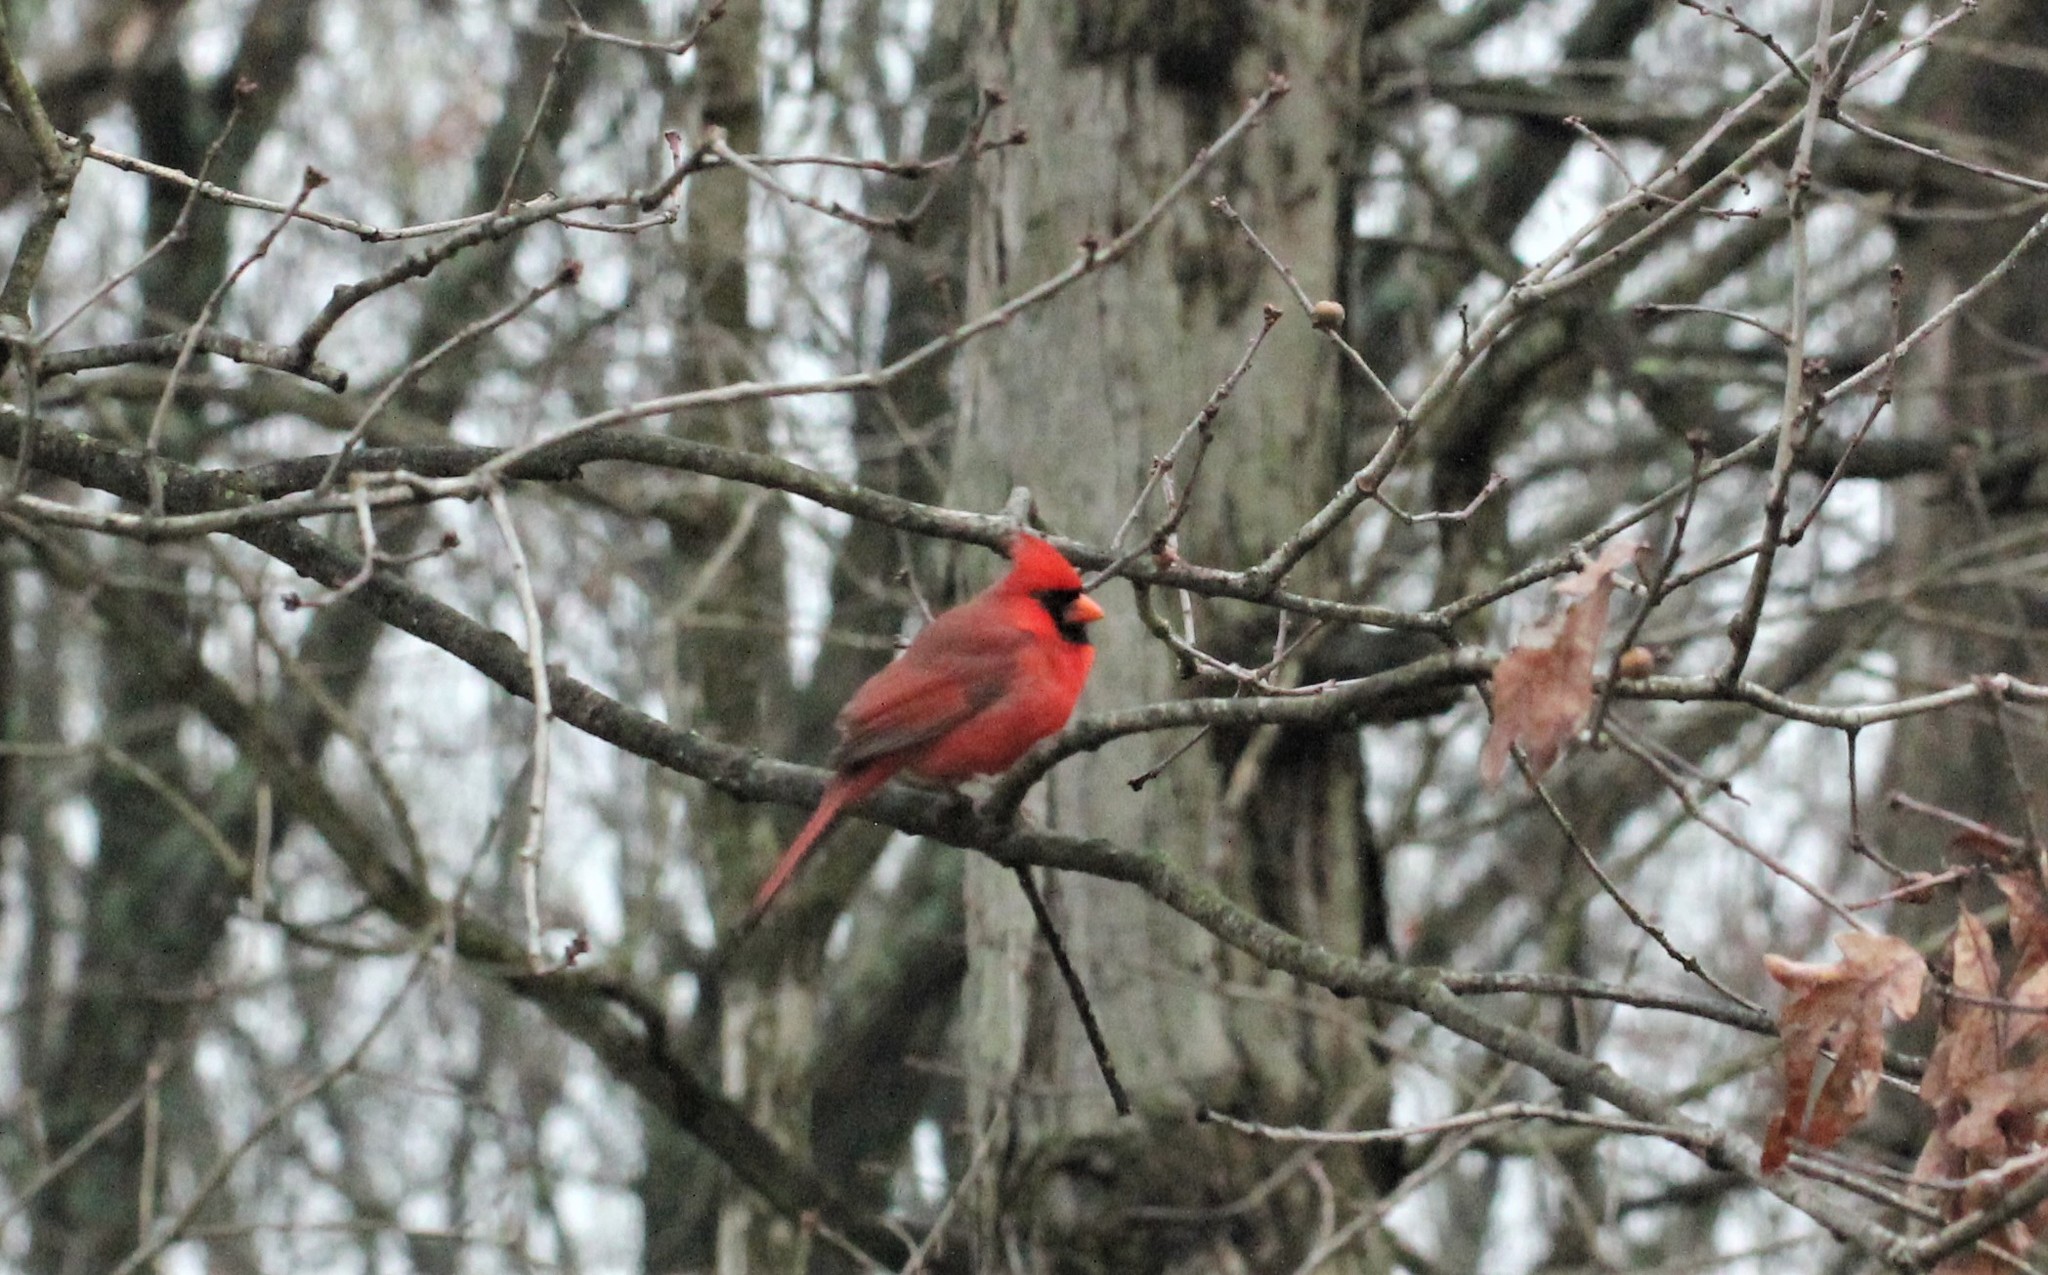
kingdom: Animalia
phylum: Chordata
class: Aves
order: Passeriformes
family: Cardinalidae
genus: Cardinalis
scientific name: Cardinalis cardinalis
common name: Northern cardinal
